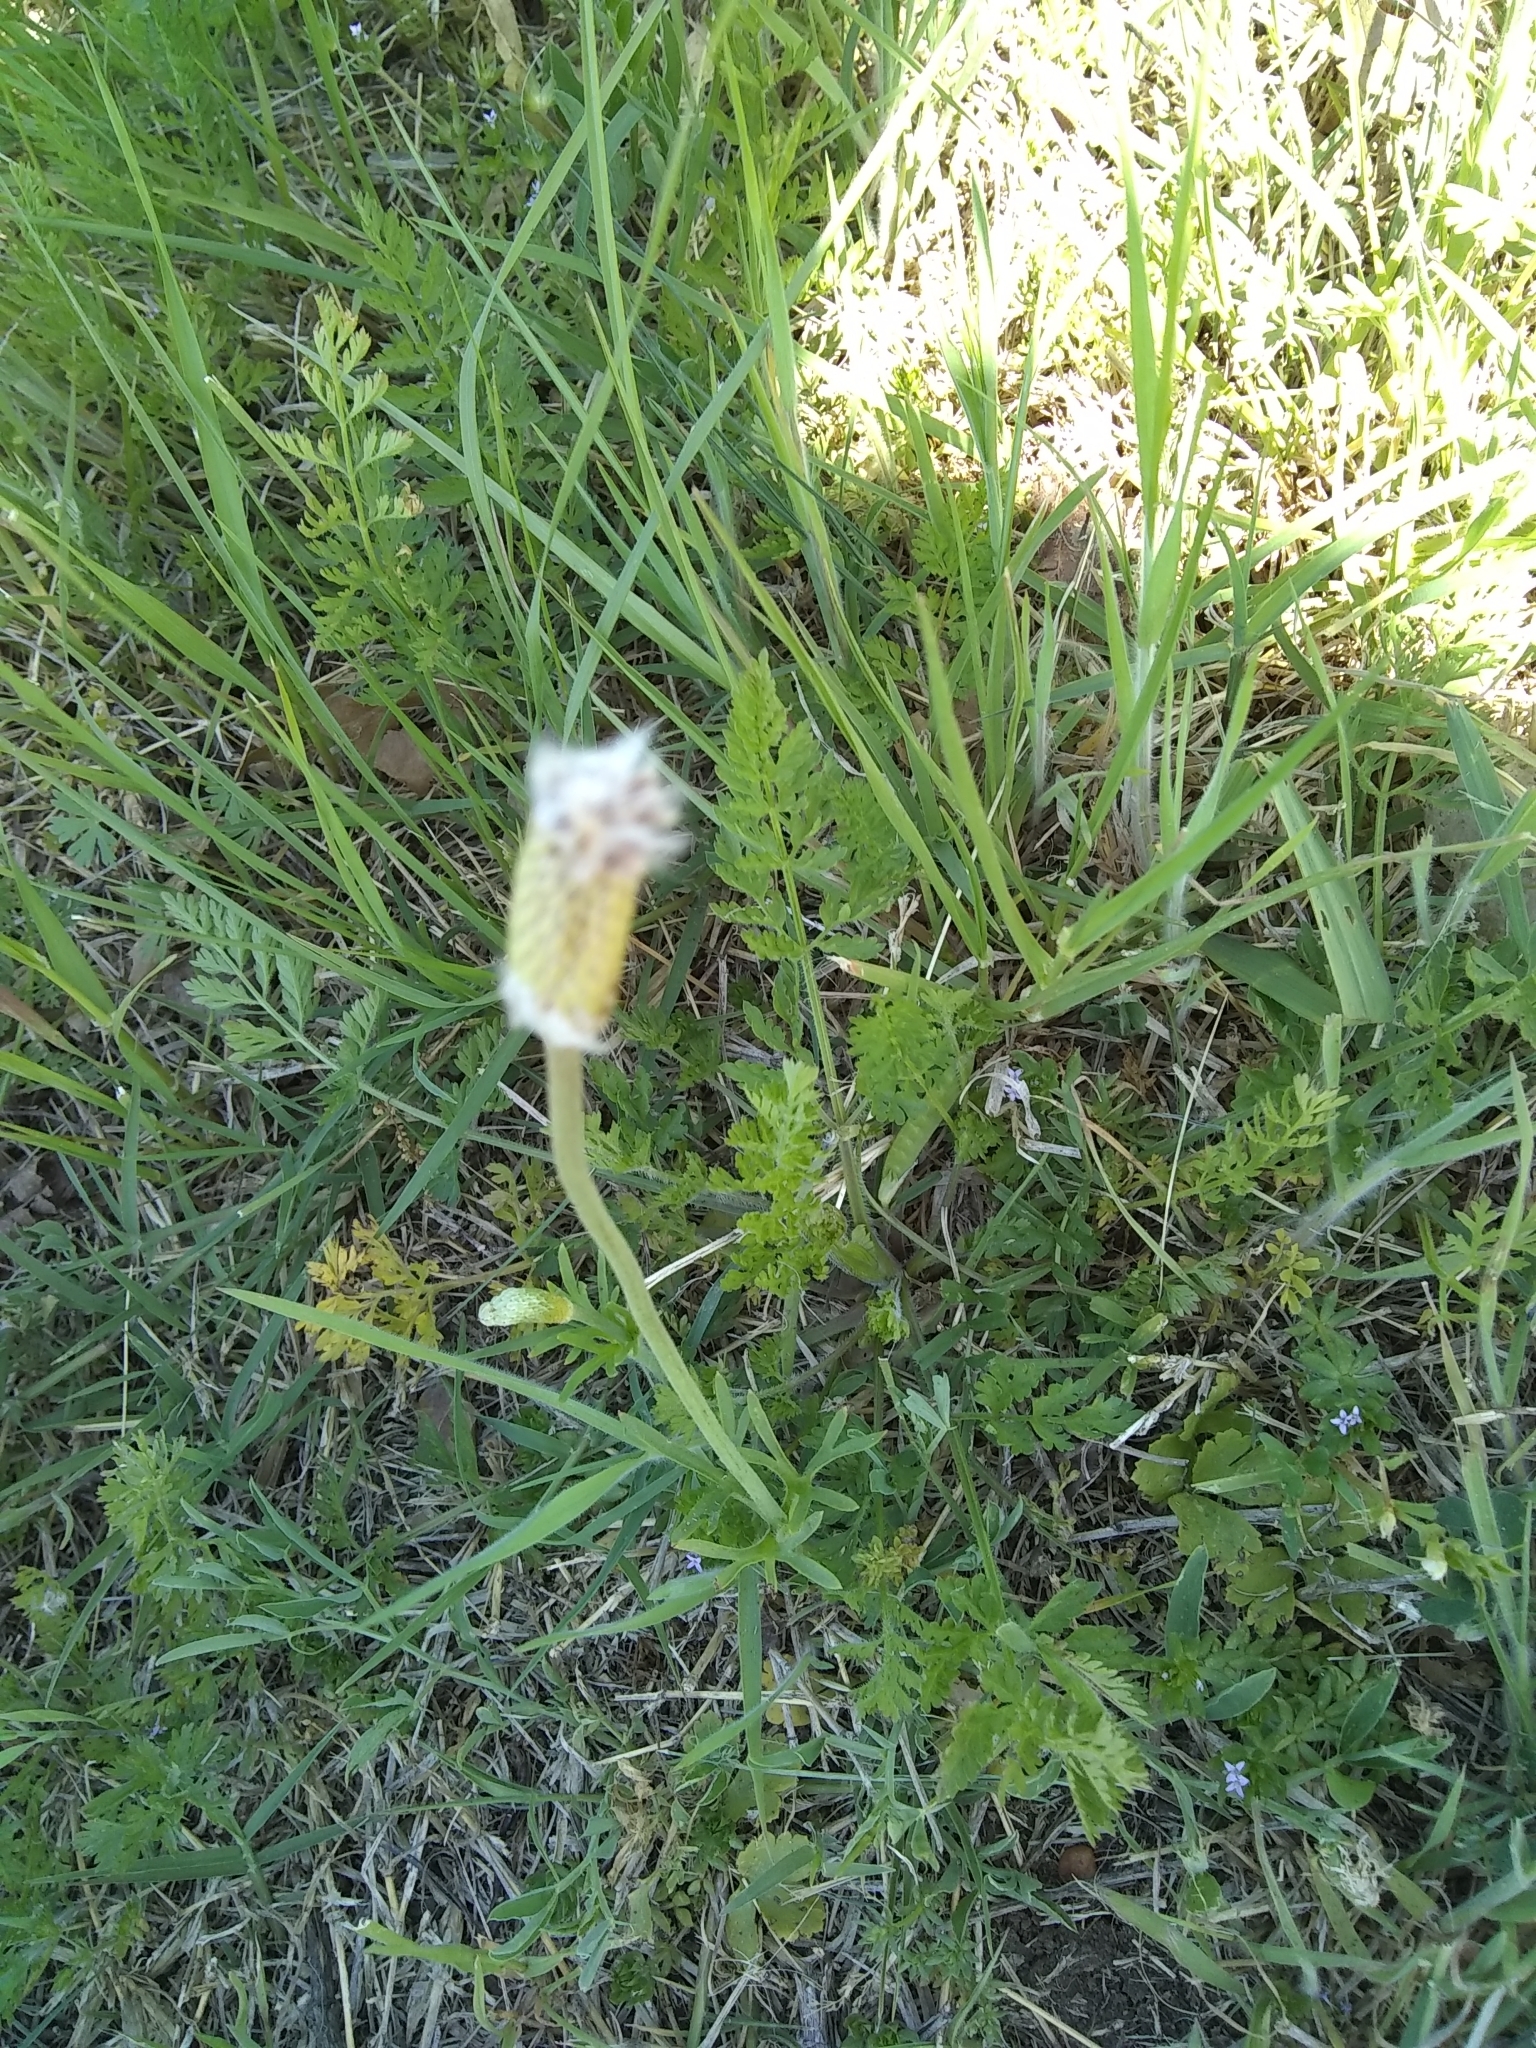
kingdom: Plantae
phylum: Tracheophyta
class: Magnoliopsida
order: Ranunculales
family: Ranunculaceae
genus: Anemone
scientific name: Anemone berlandieri
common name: Ten-petal anemone
